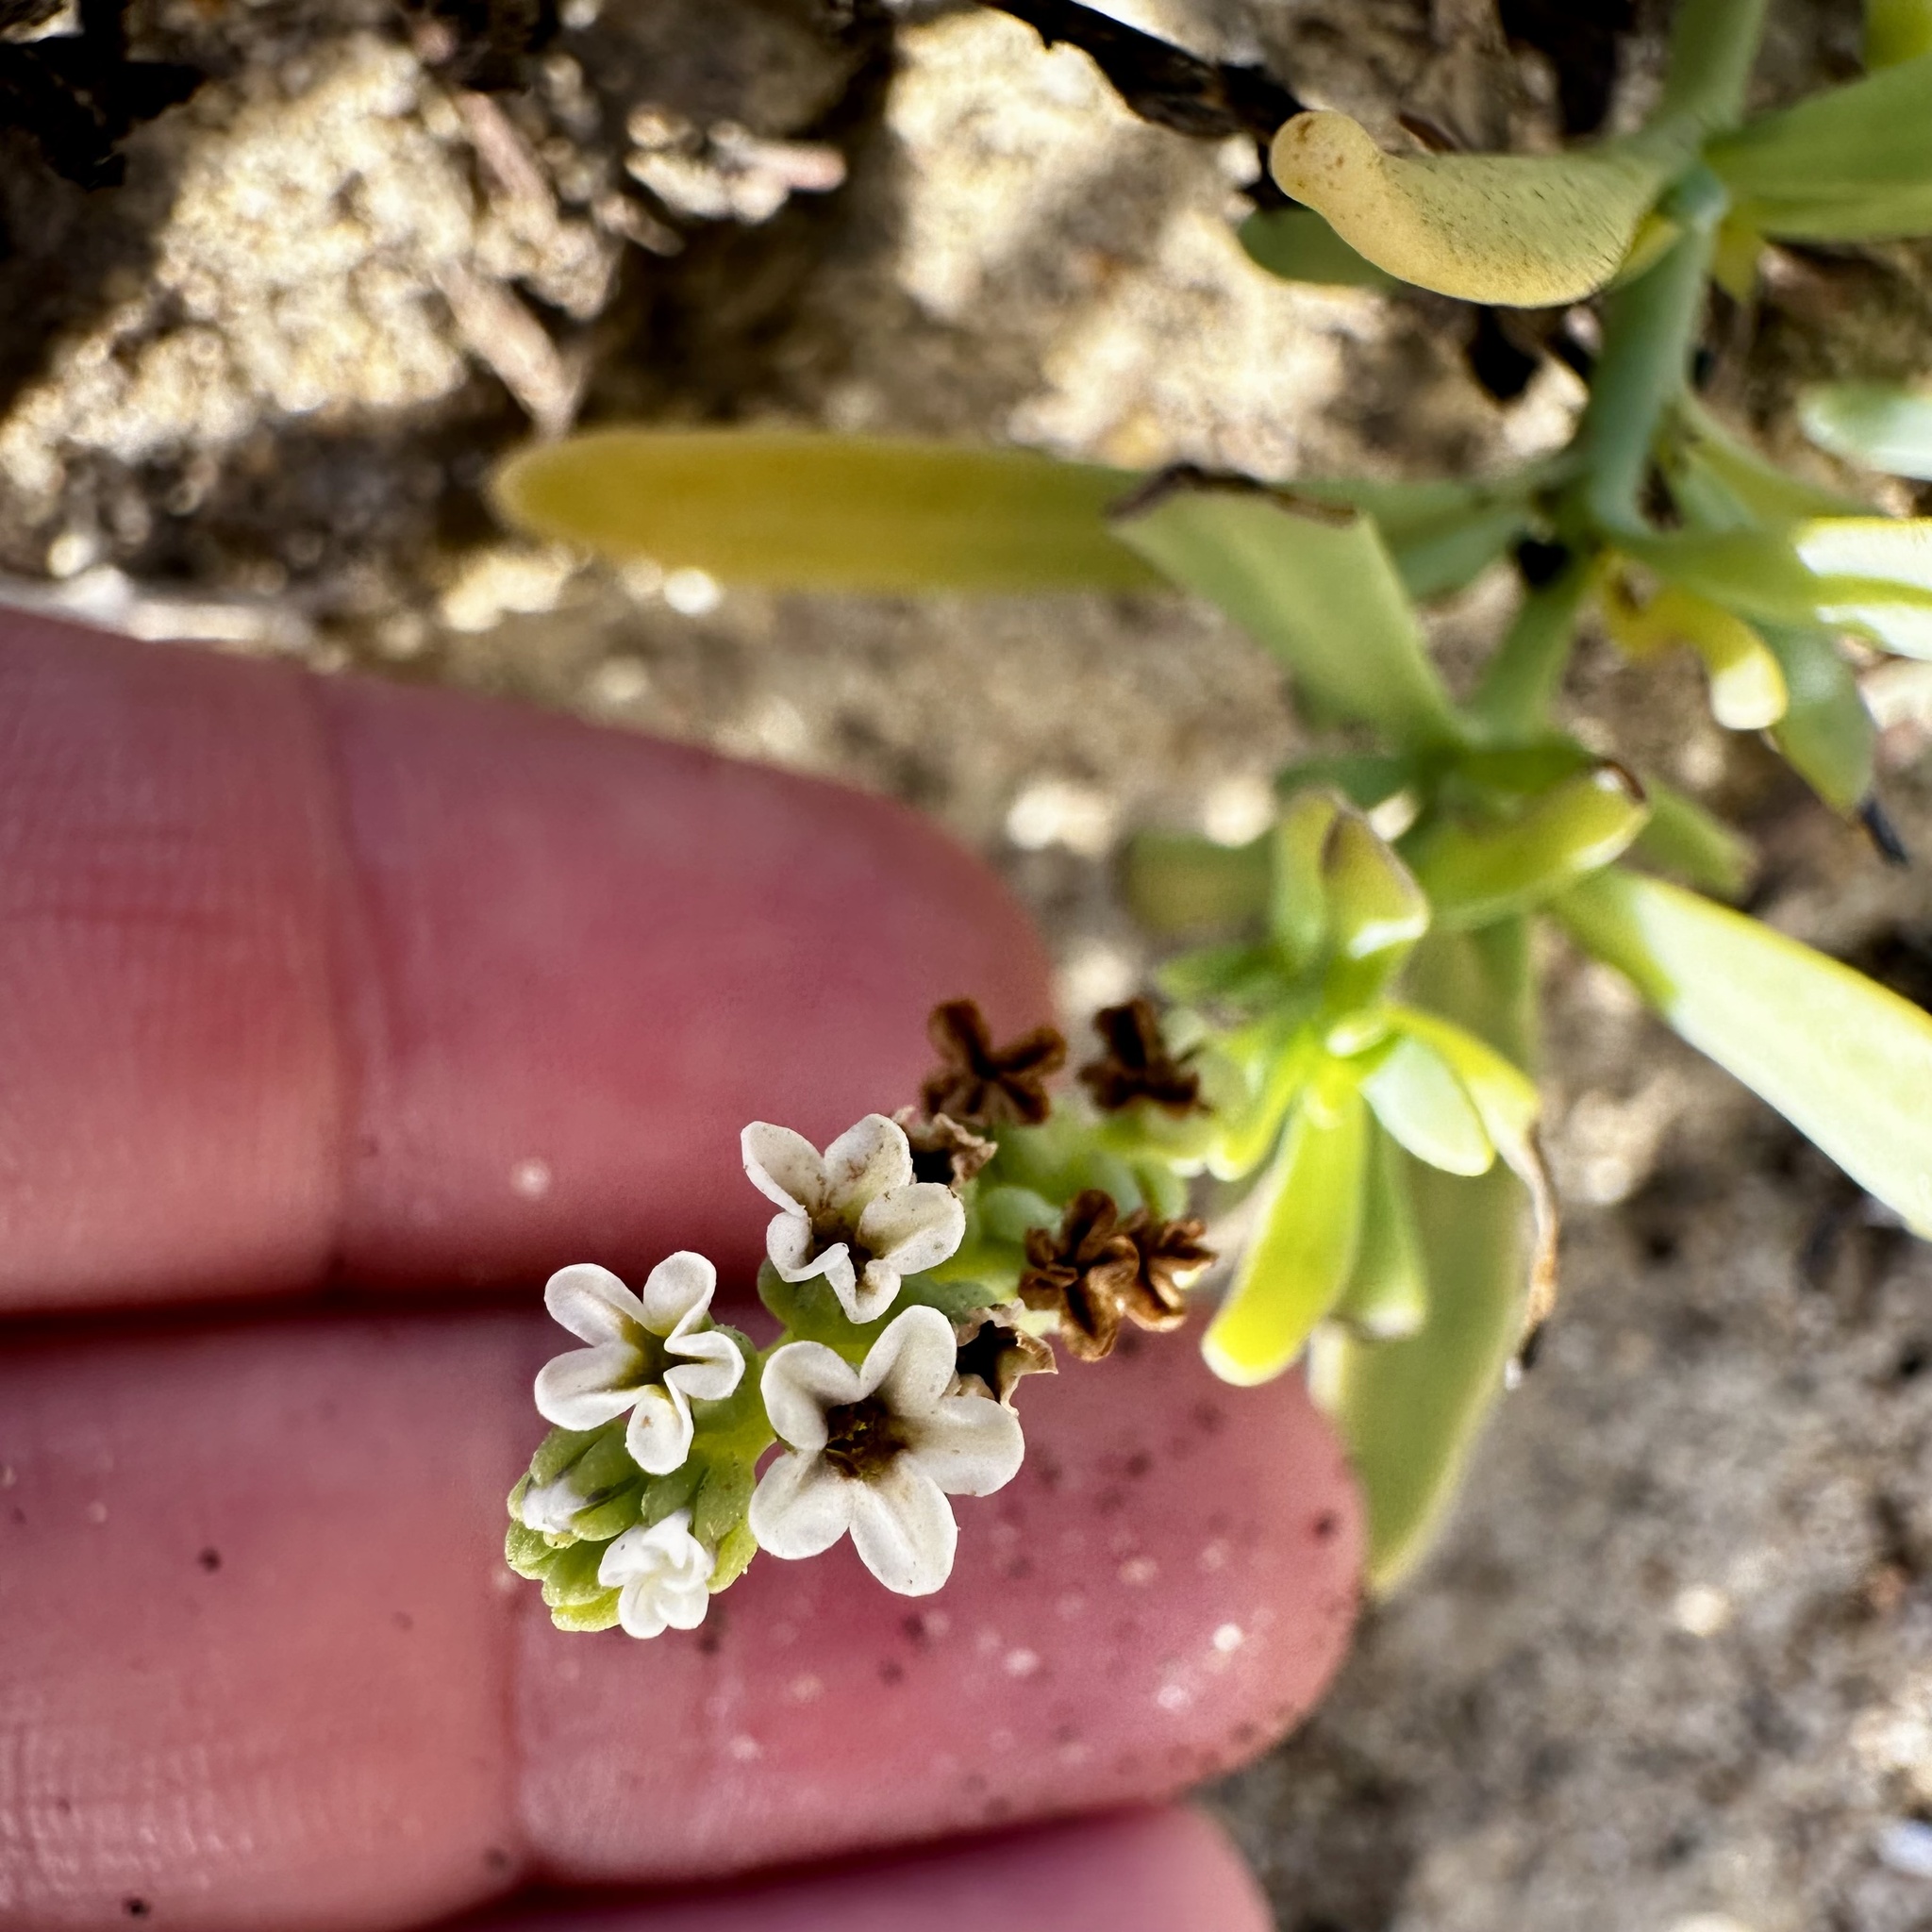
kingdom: Plantae
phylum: Tracheophyta
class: Magnoliopsida
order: Boraginales
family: Heliotropiaceae
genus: Heliotropium
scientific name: Heliotropium curassavicum
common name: Seaside heliotrope
